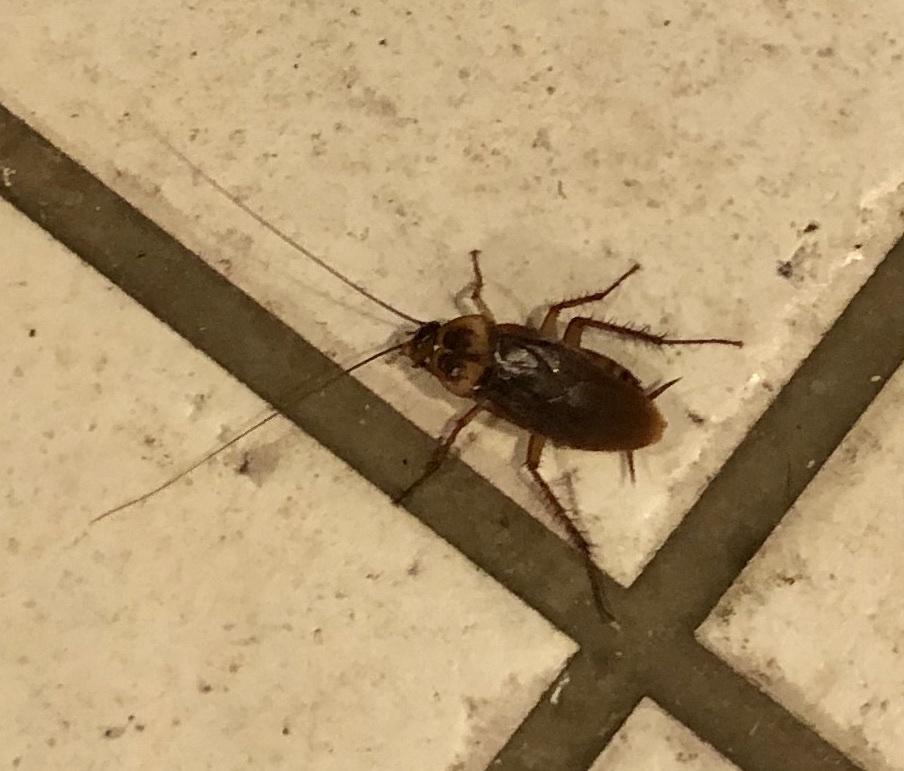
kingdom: Animalia
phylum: Arthropoda
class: Insecta
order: Blattodea
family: Blattidae
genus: Periplaneta
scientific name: Periplaneta americana
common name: American cockroach
